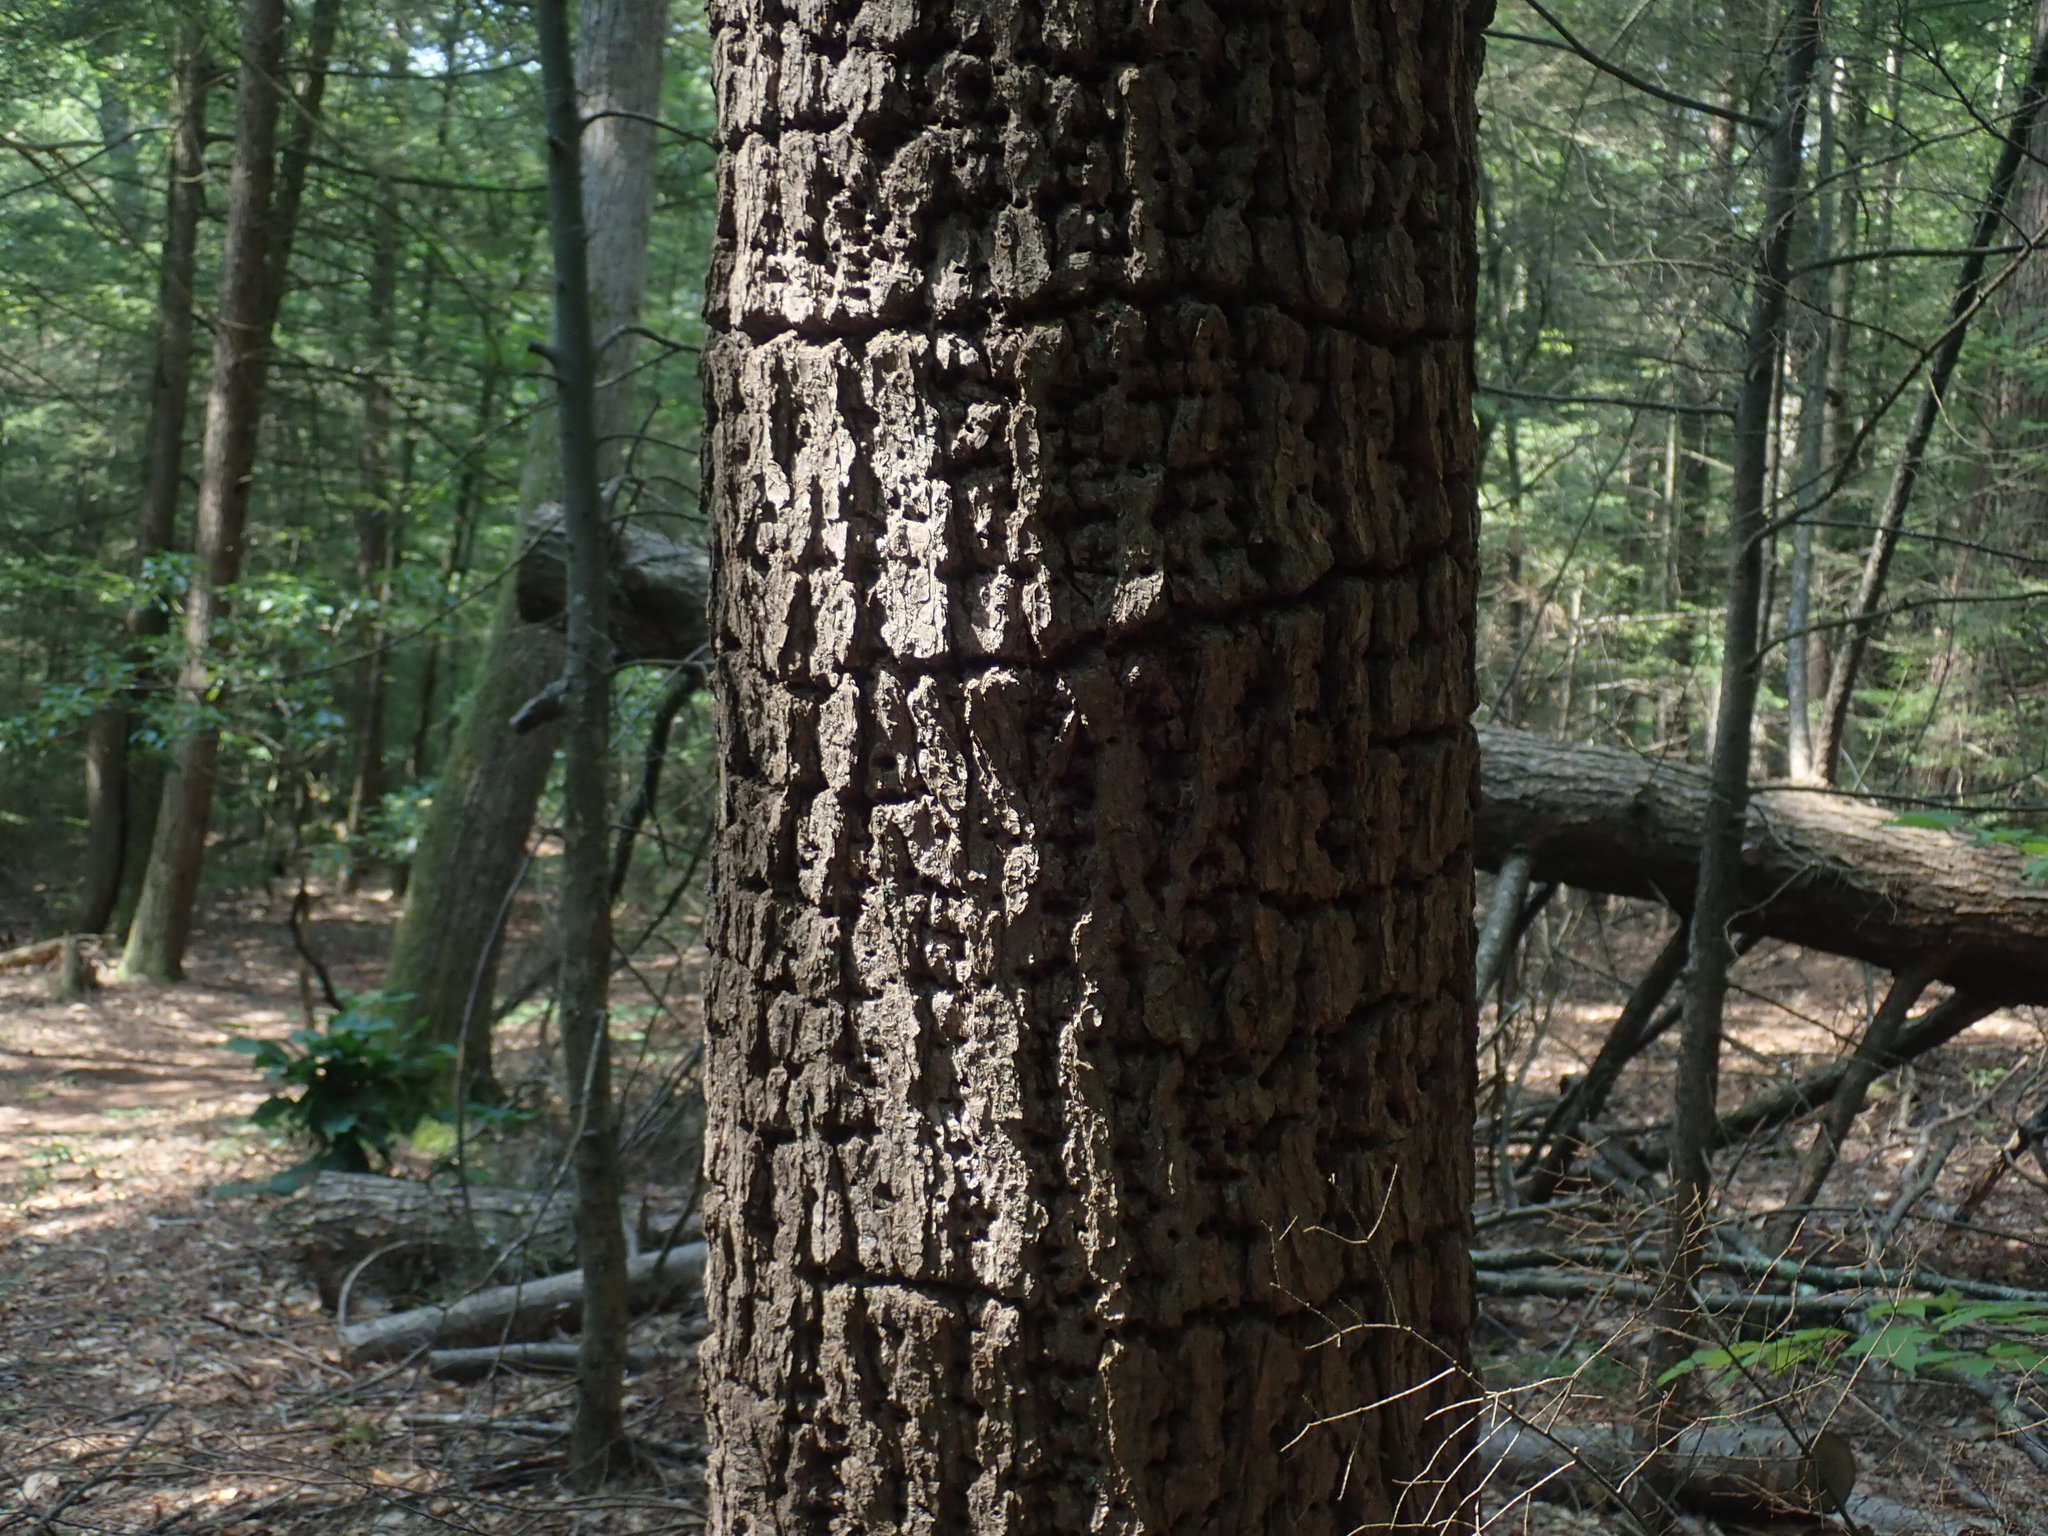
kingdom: Animalia
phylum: Chordata
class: Aves
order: Piciformes
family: Picidae
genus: Sphyrapicus
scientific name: Sphyrapicus varius
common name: Yellow-bellied sapsucker
